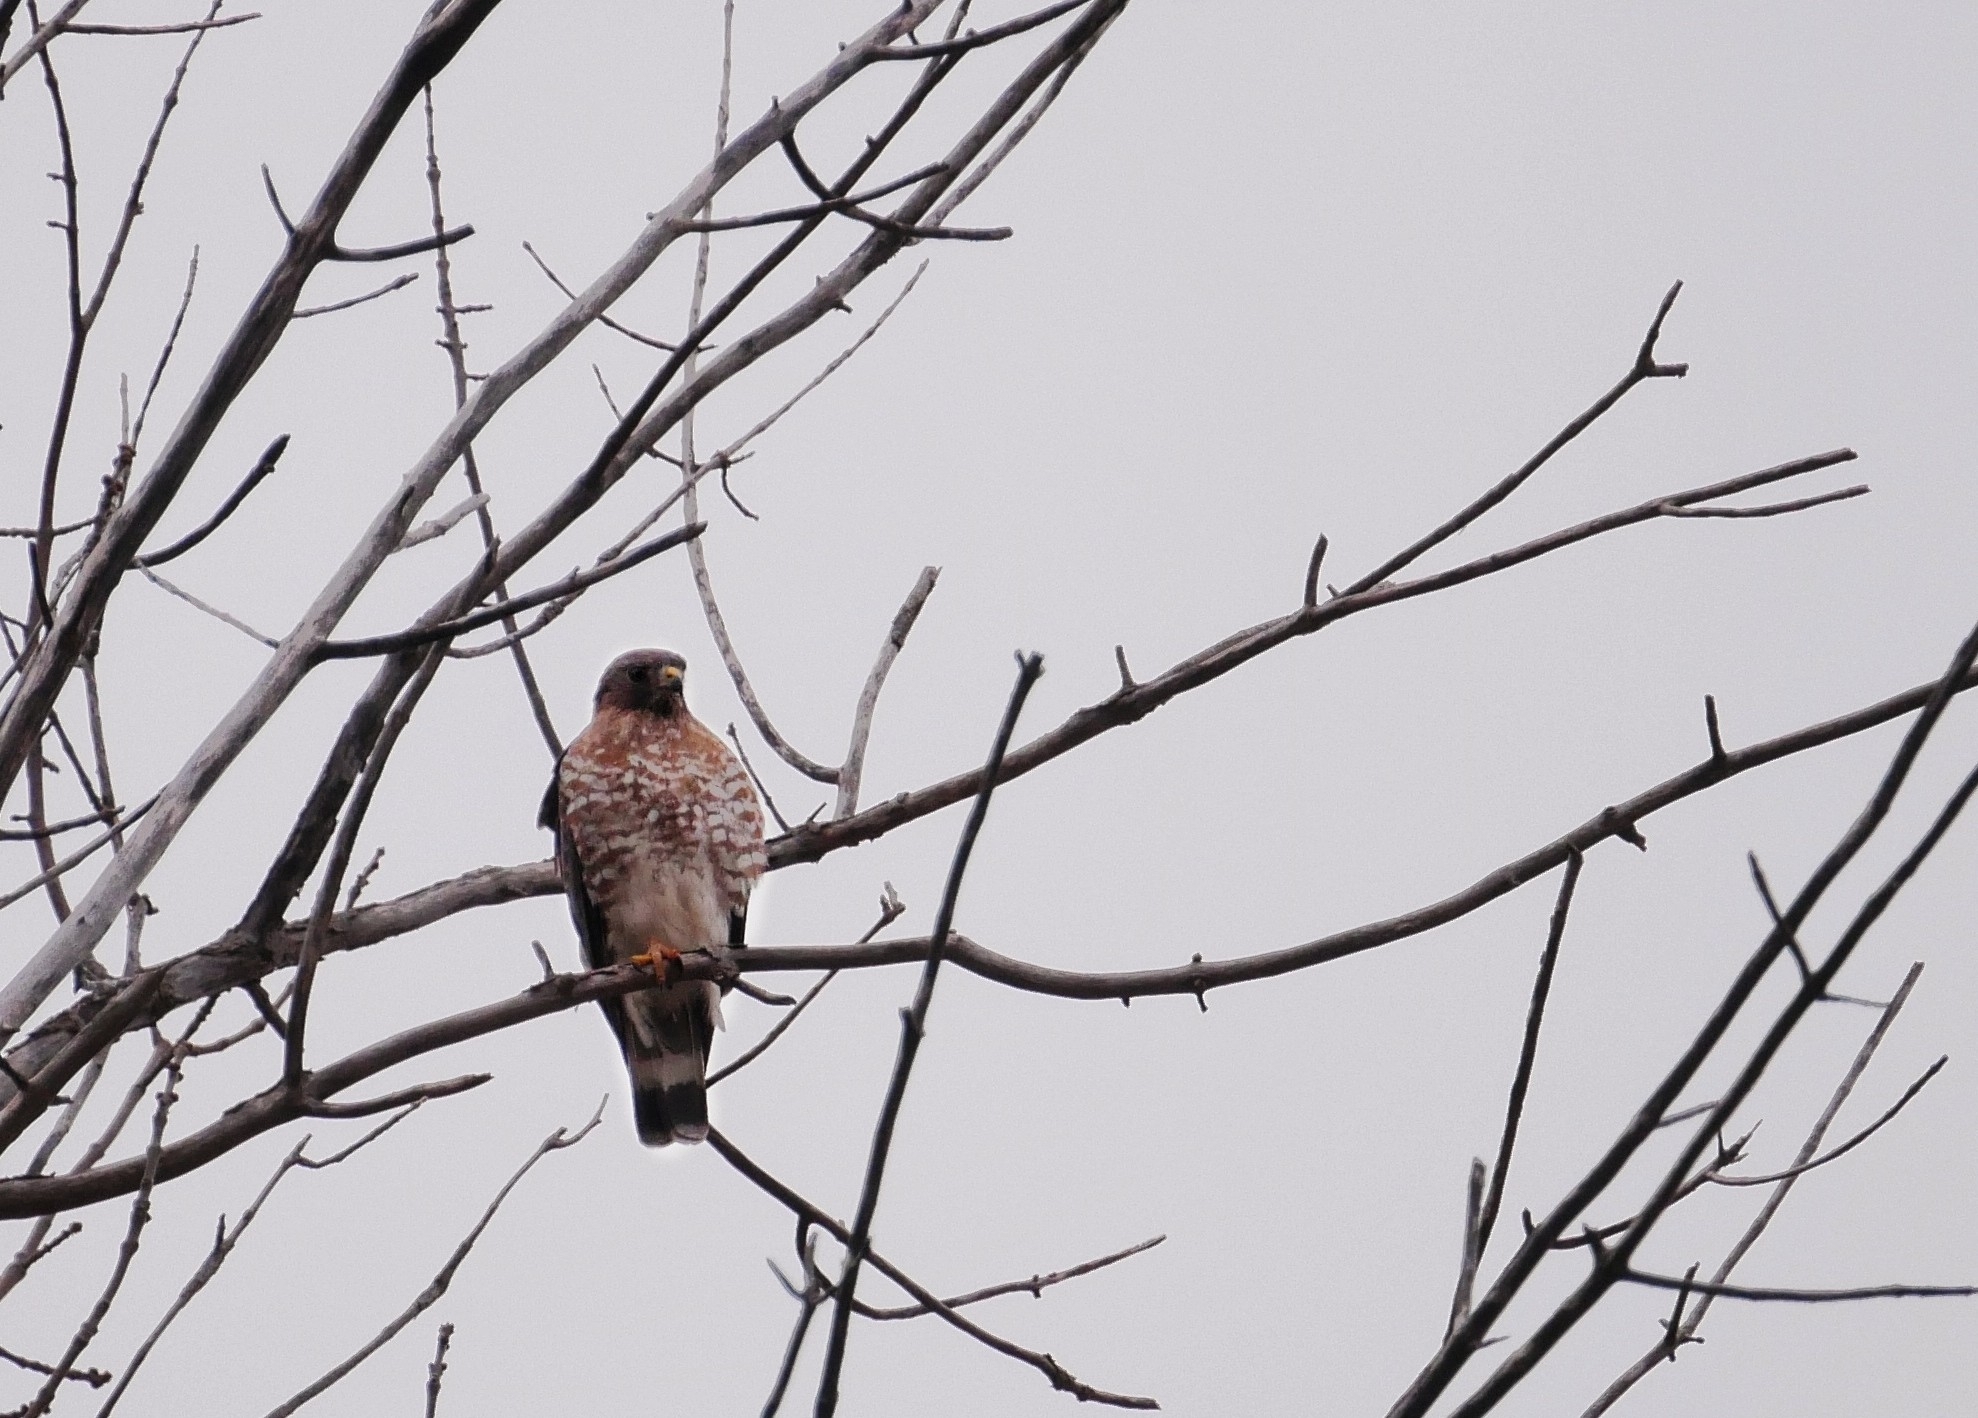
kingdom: Animalia
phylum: Chordata
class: Aves
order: Accipitriformes
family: Accipitridae
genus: Buteo
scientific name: Buteo platypterus
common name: Broad-winged hawk
